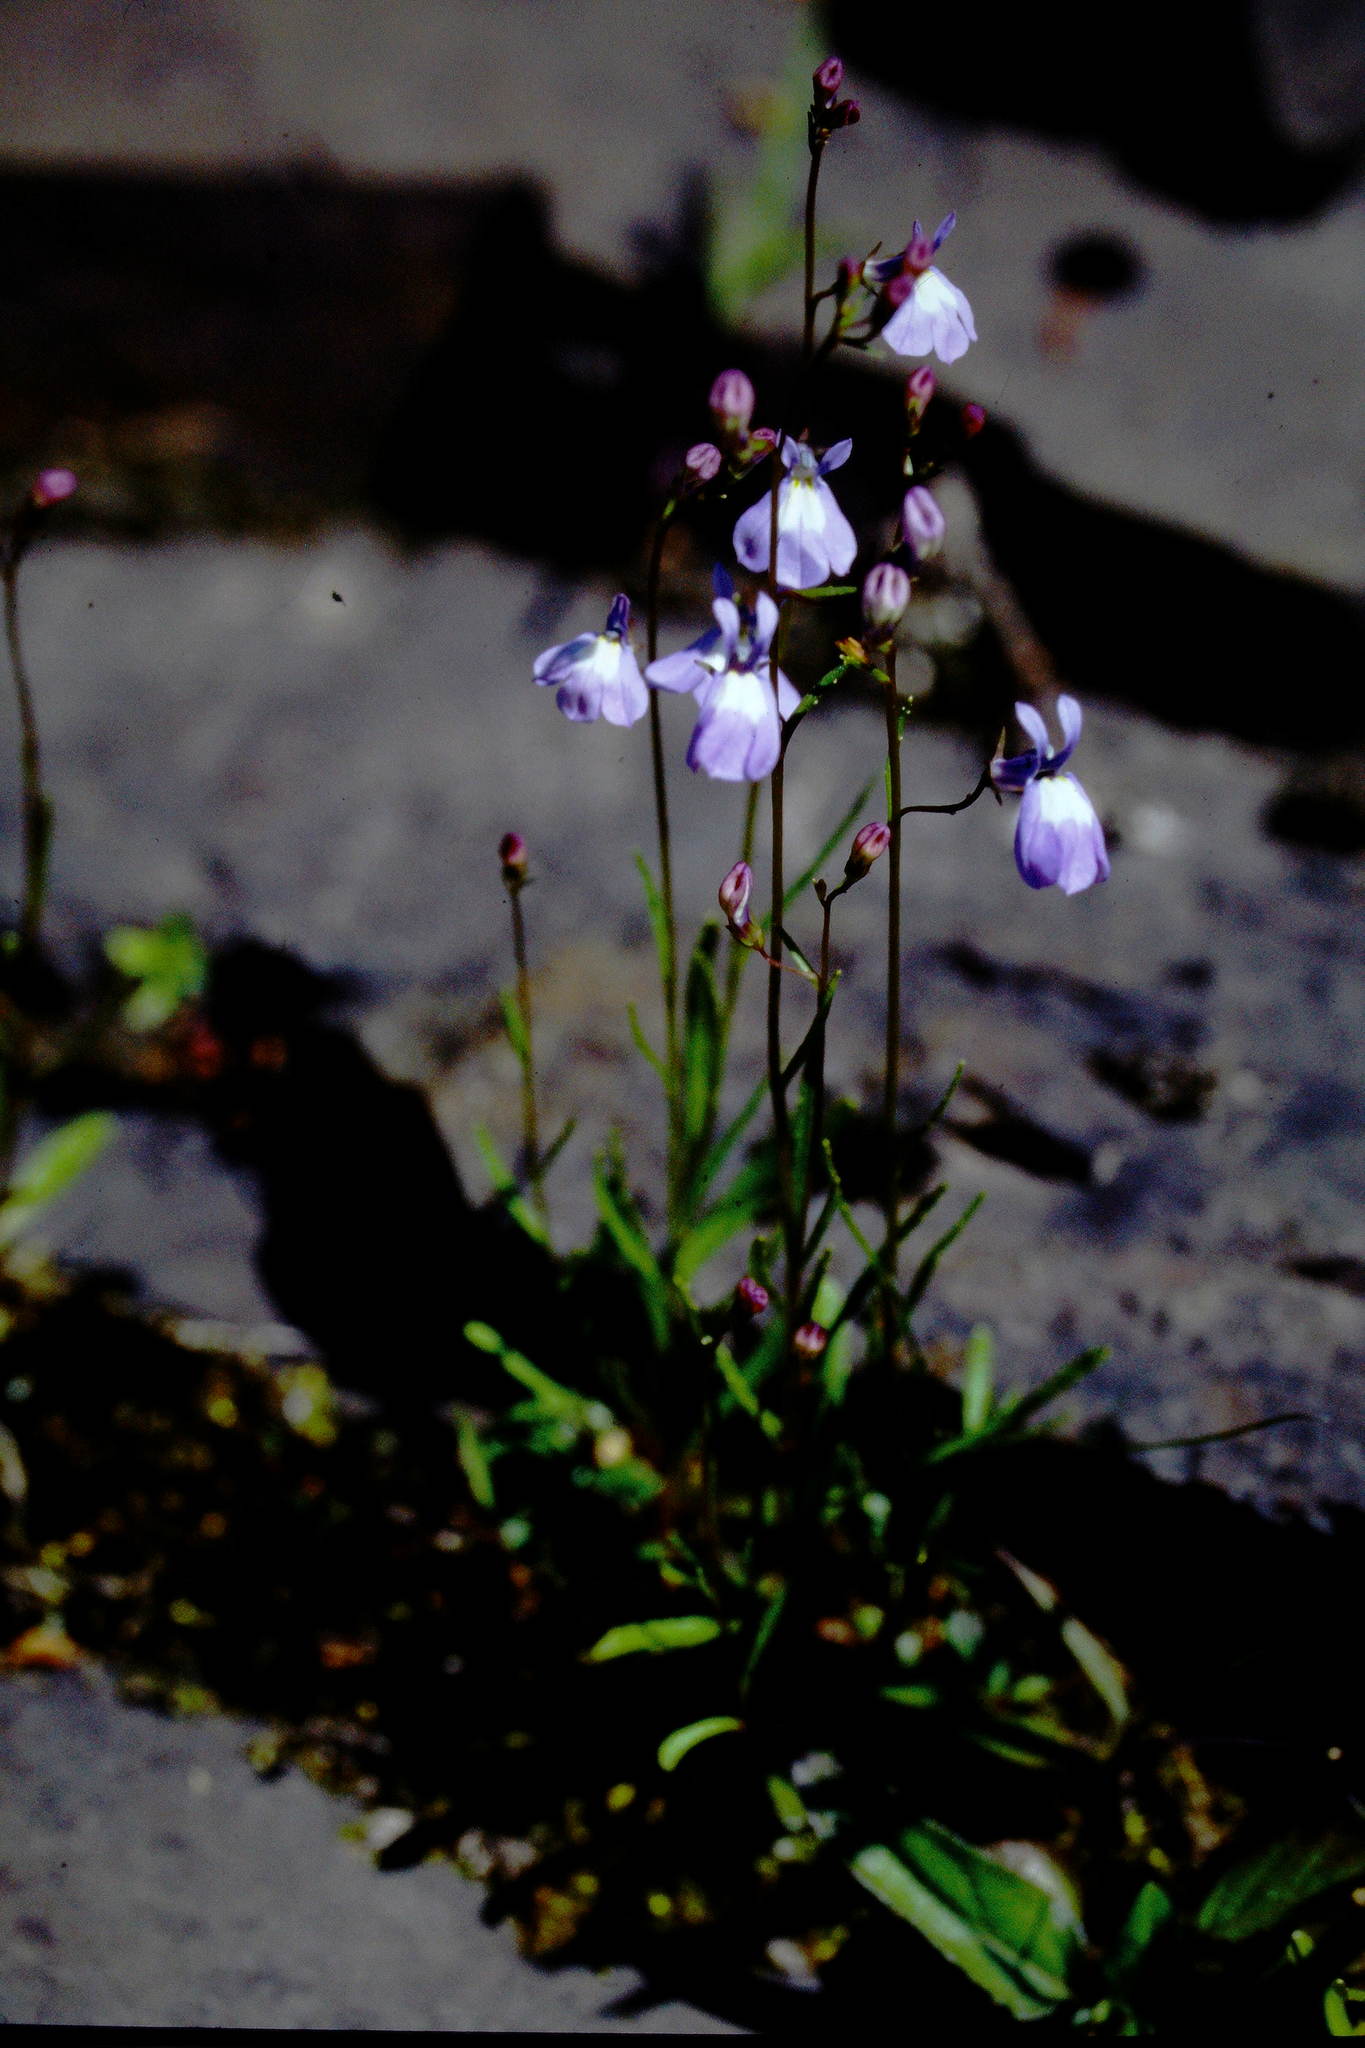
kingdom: Plantae
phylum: Tracheophyta
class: Magnoliopsida
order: Asterales
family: Campanulaceae
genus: Lobelia
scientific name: Lobelia kalmii
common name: Kalm's lobelia
